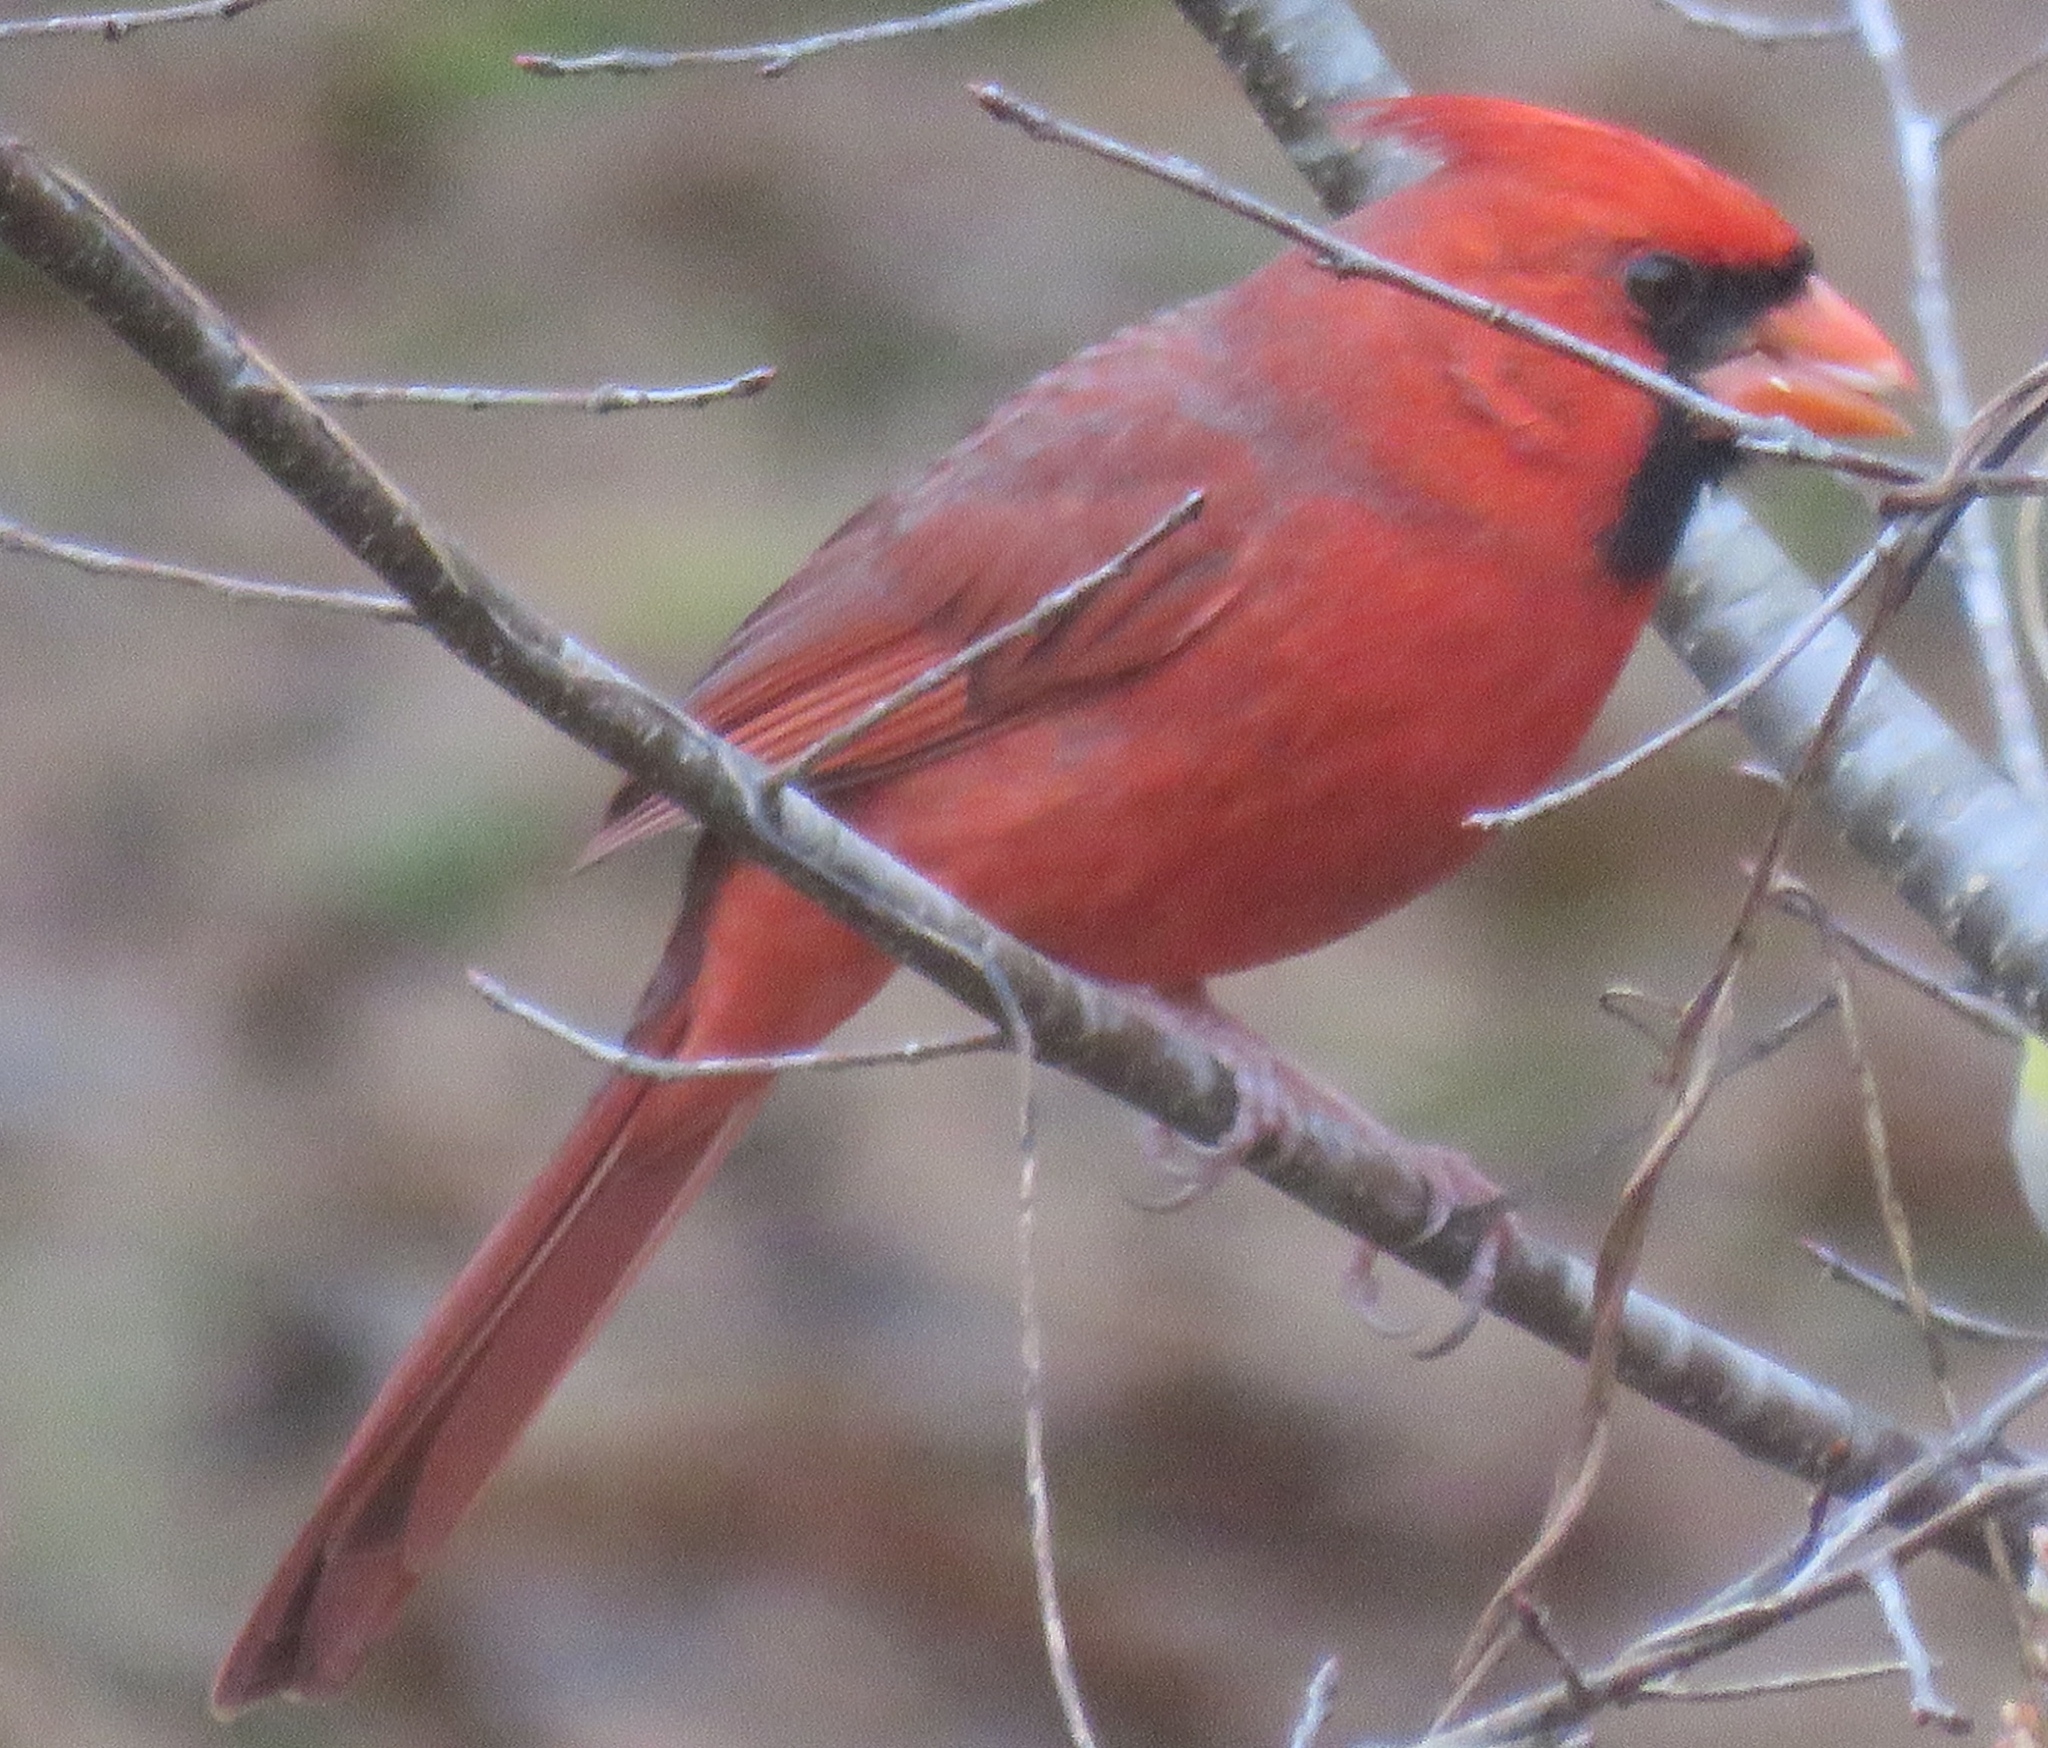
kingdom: Animalia
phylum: Chordata
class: Aves
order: Passeriformes
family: Cardinalidae
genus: Cardinalis
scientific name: Cardinalis cardinalis
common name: Northern cardinal
